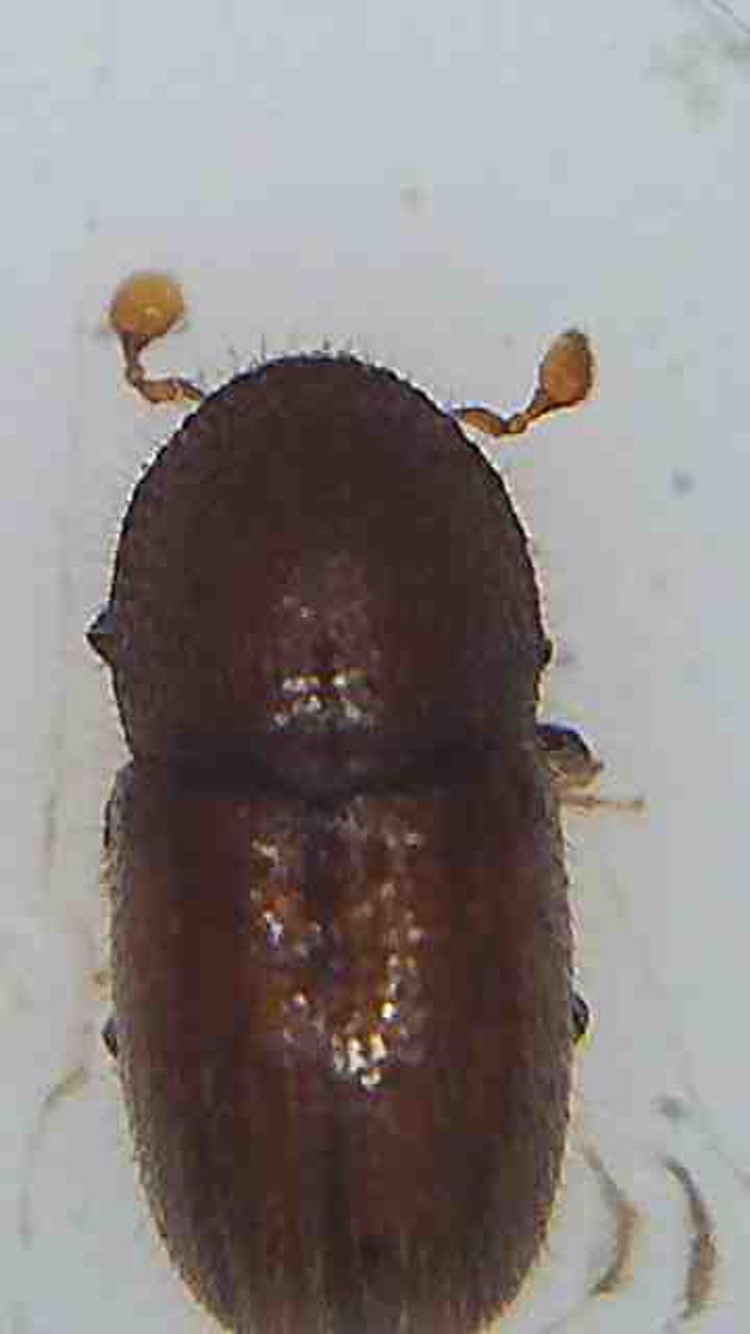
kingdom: Animalia
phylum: Arthropoda
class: Insecta
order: Coleoptera
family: Curculionidae
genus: Coccotrypes
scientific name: Coccotrypes dactyliperda
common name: Bark beetle
